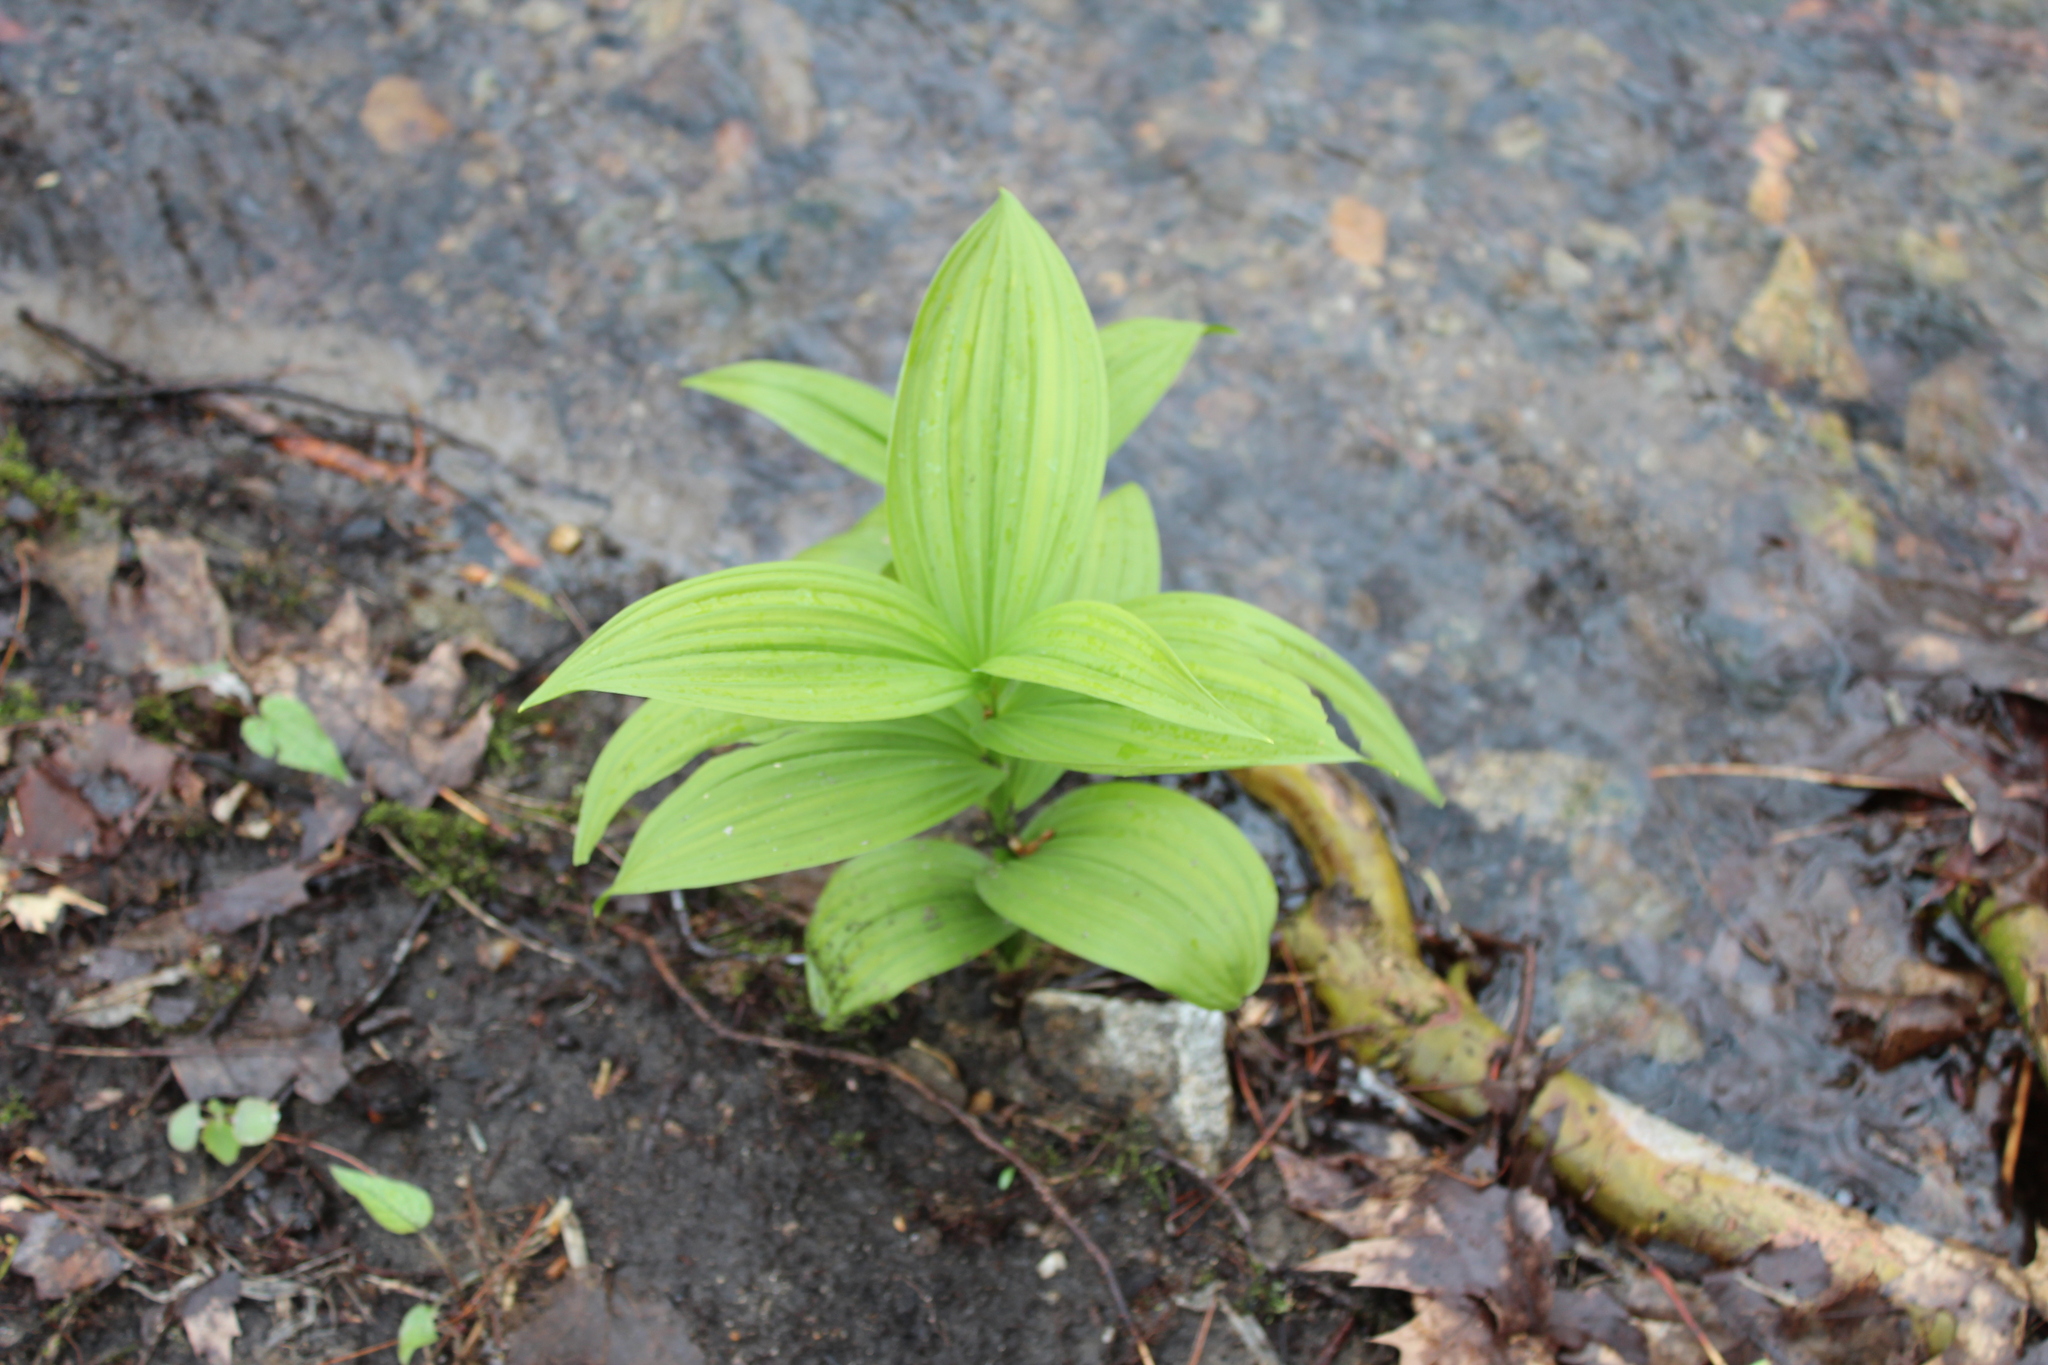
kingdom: Plantae
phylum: Tracheophyta
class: Liliopsida
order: Liliales
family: Melanthiaceae
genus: Veratrum
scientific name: Veratrum viride
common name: American false hellebore
